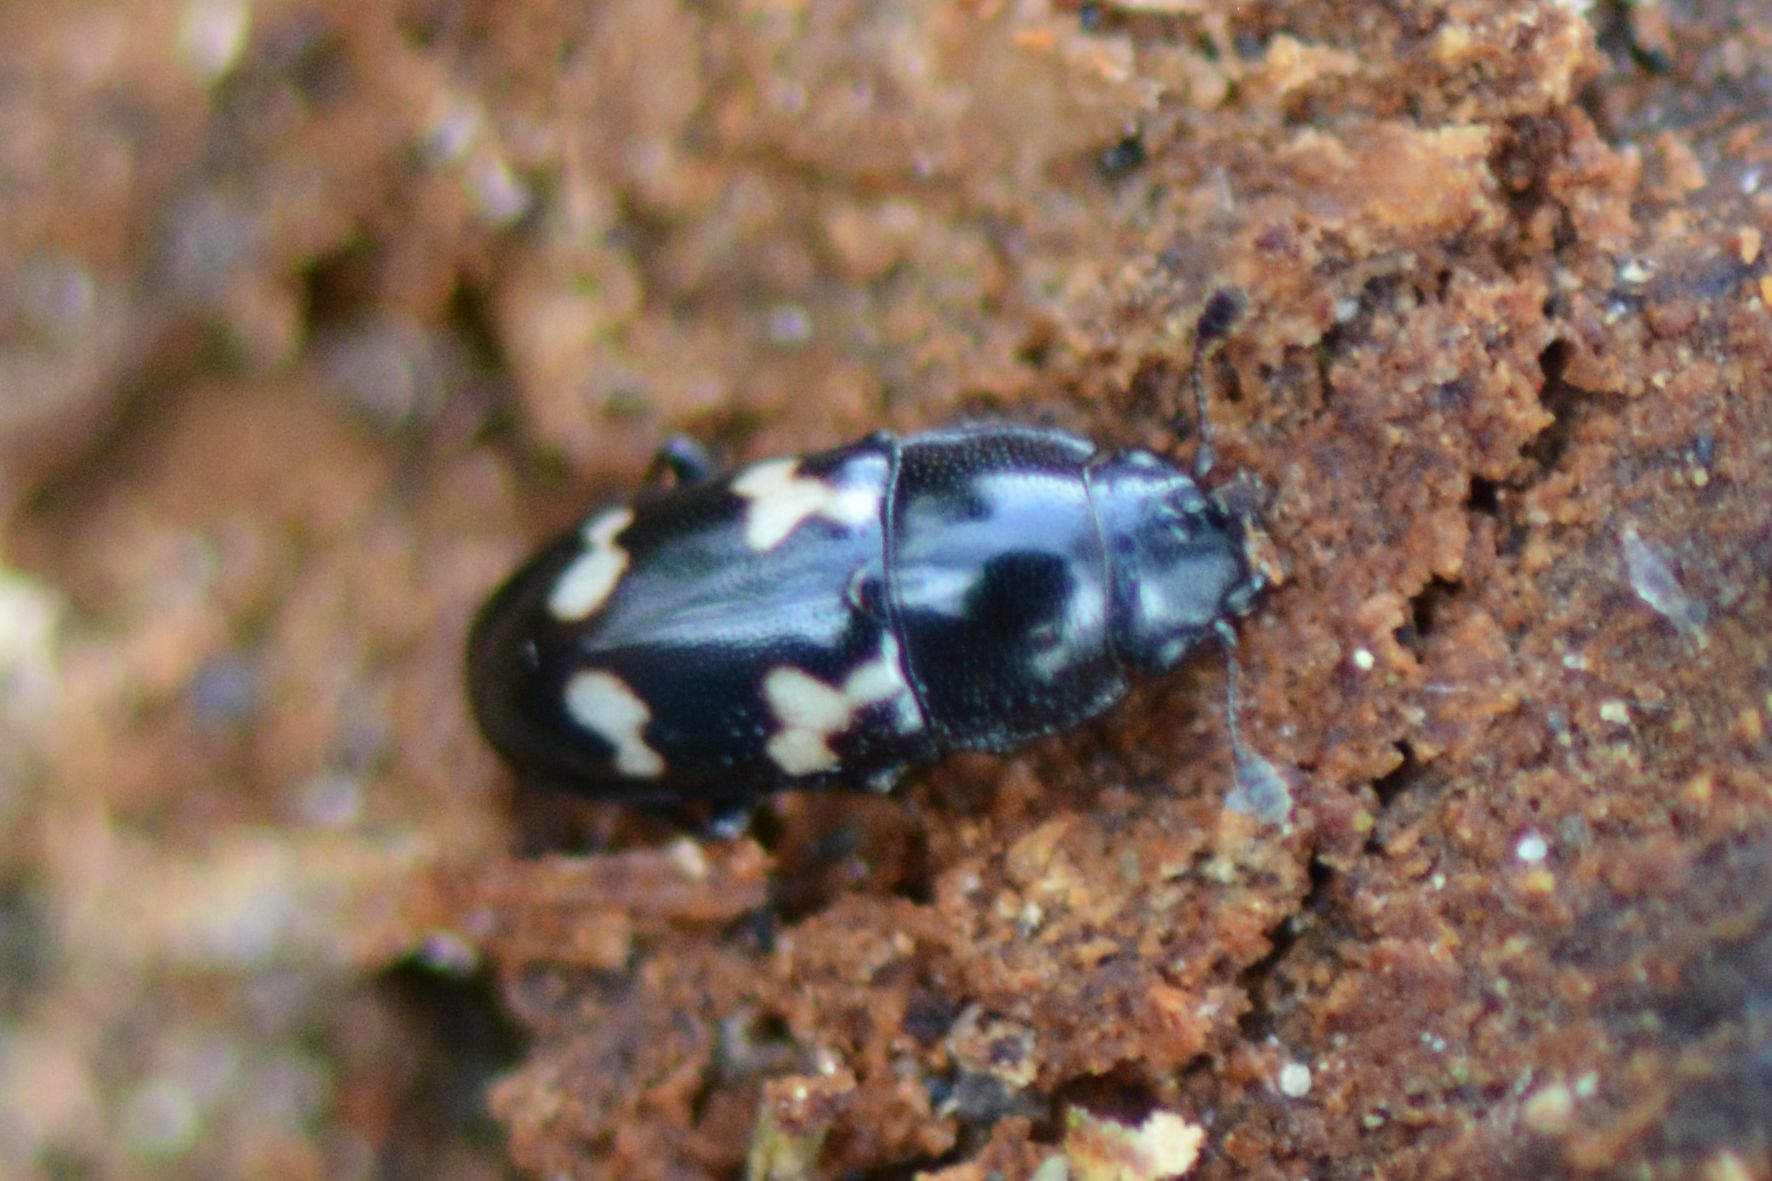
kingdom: Animalia
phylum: Arthropoda
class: Insecta
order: Coleoptera
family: Nitidulidae
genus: Glischrochilus
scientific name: Glischrochilus quadriguttatus
